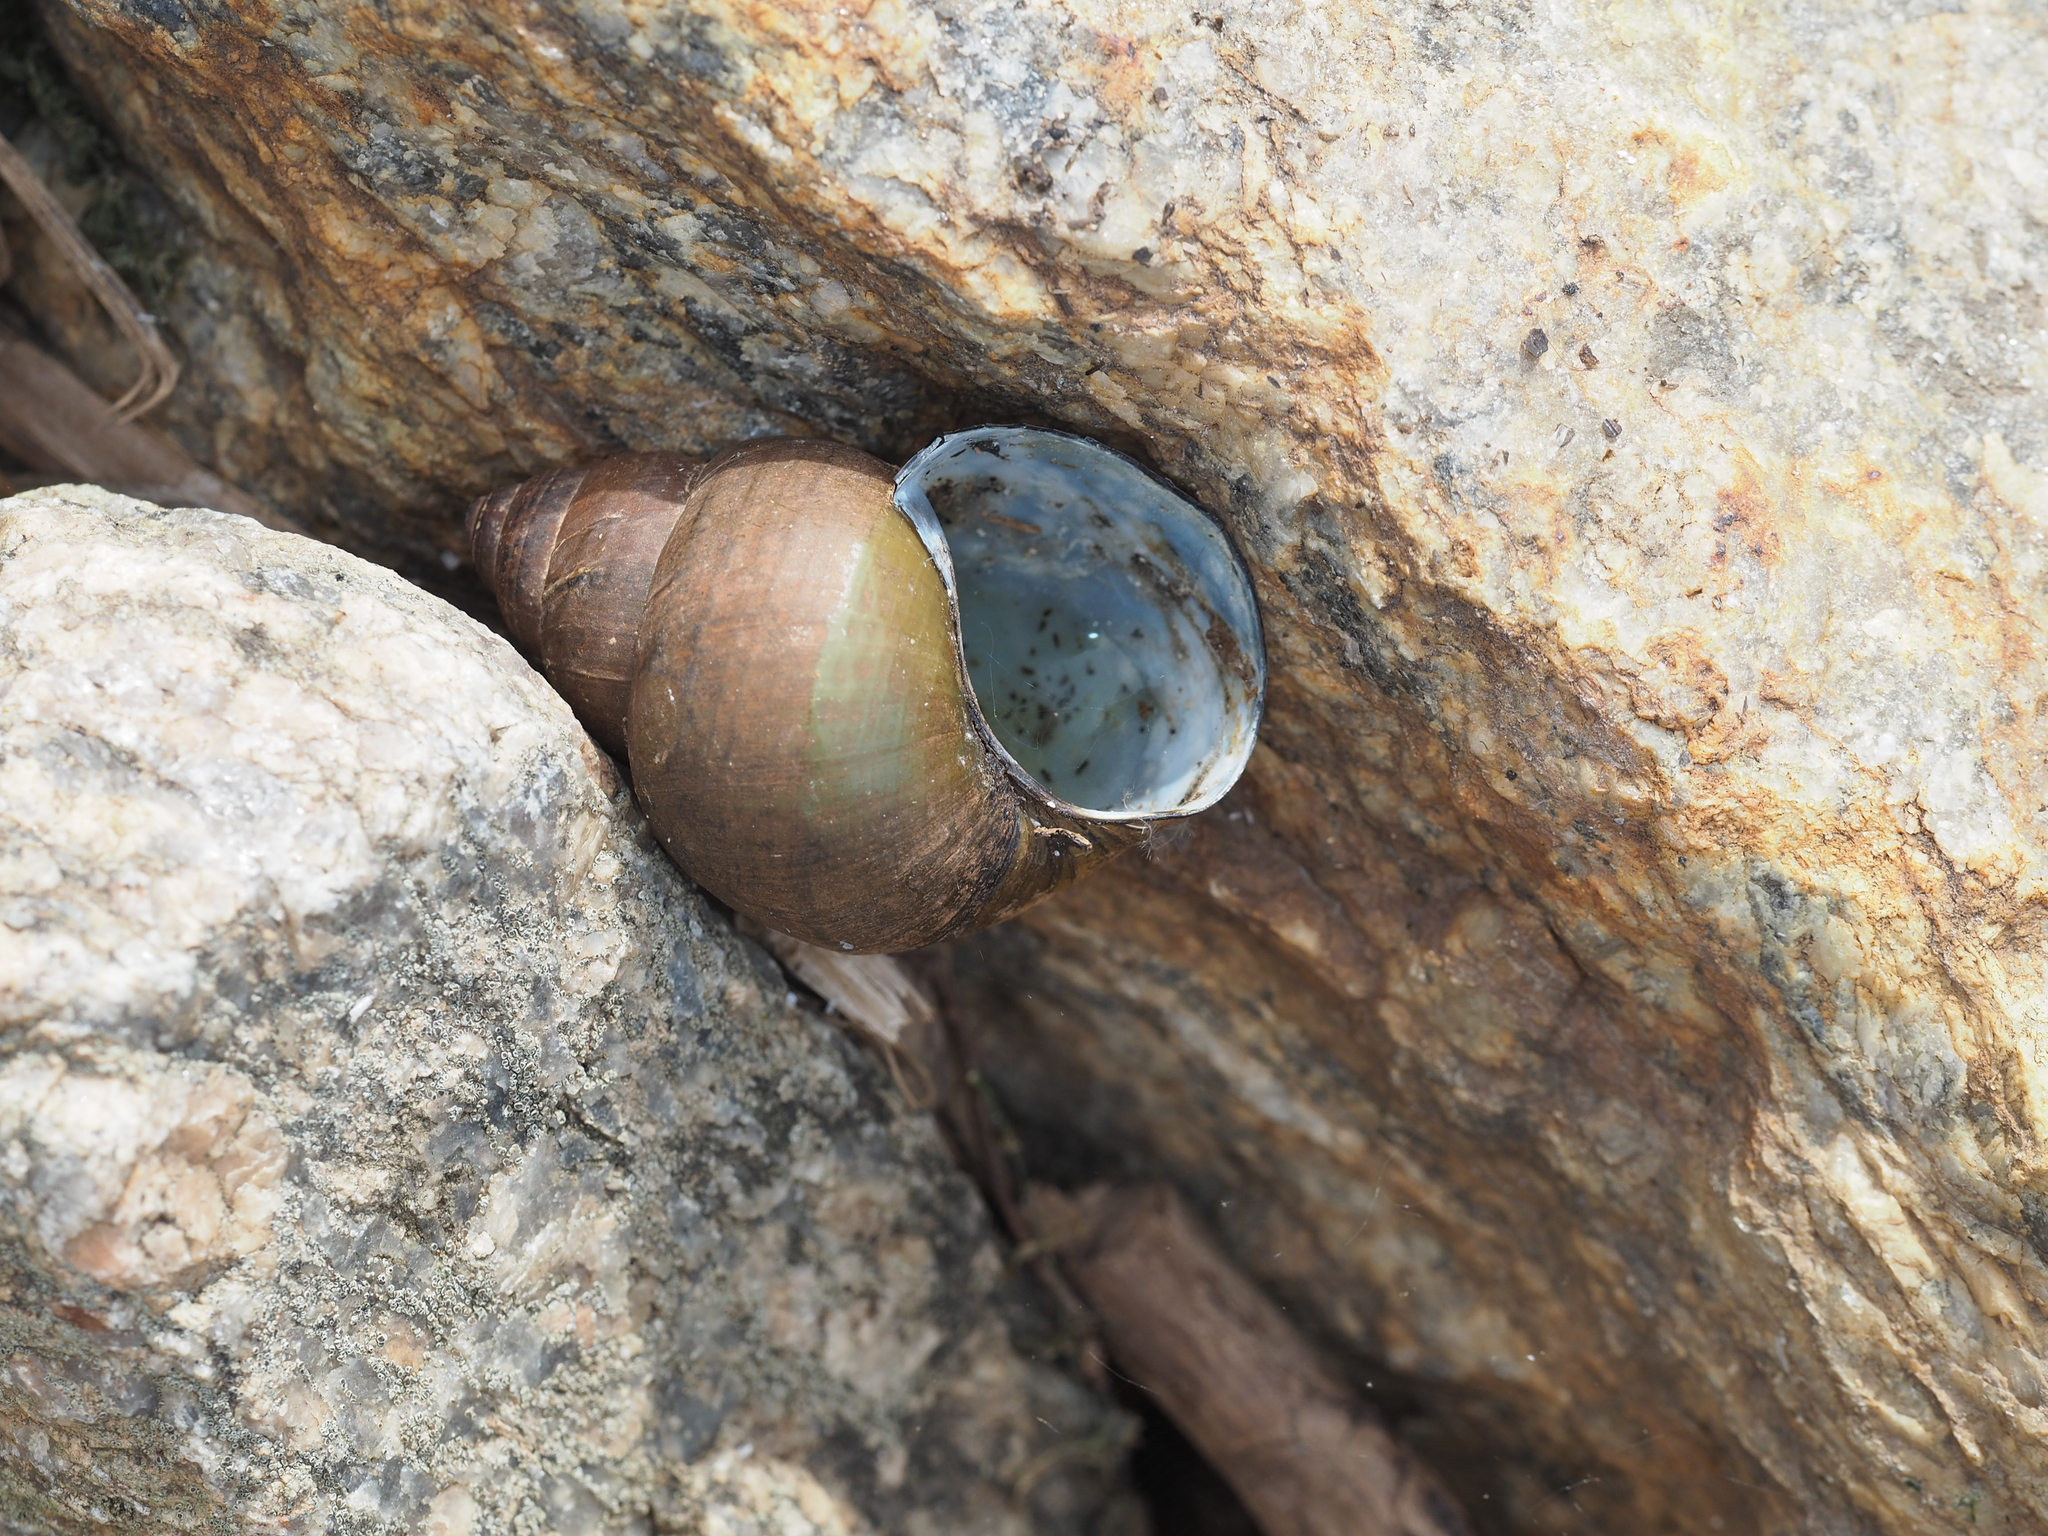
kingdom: Animalia
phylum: Mollusca
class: Gastropoda
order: Architaenioglossa
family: Viviparidae
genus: Cipangopaludina
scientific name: Cipangopaludina chinensis
